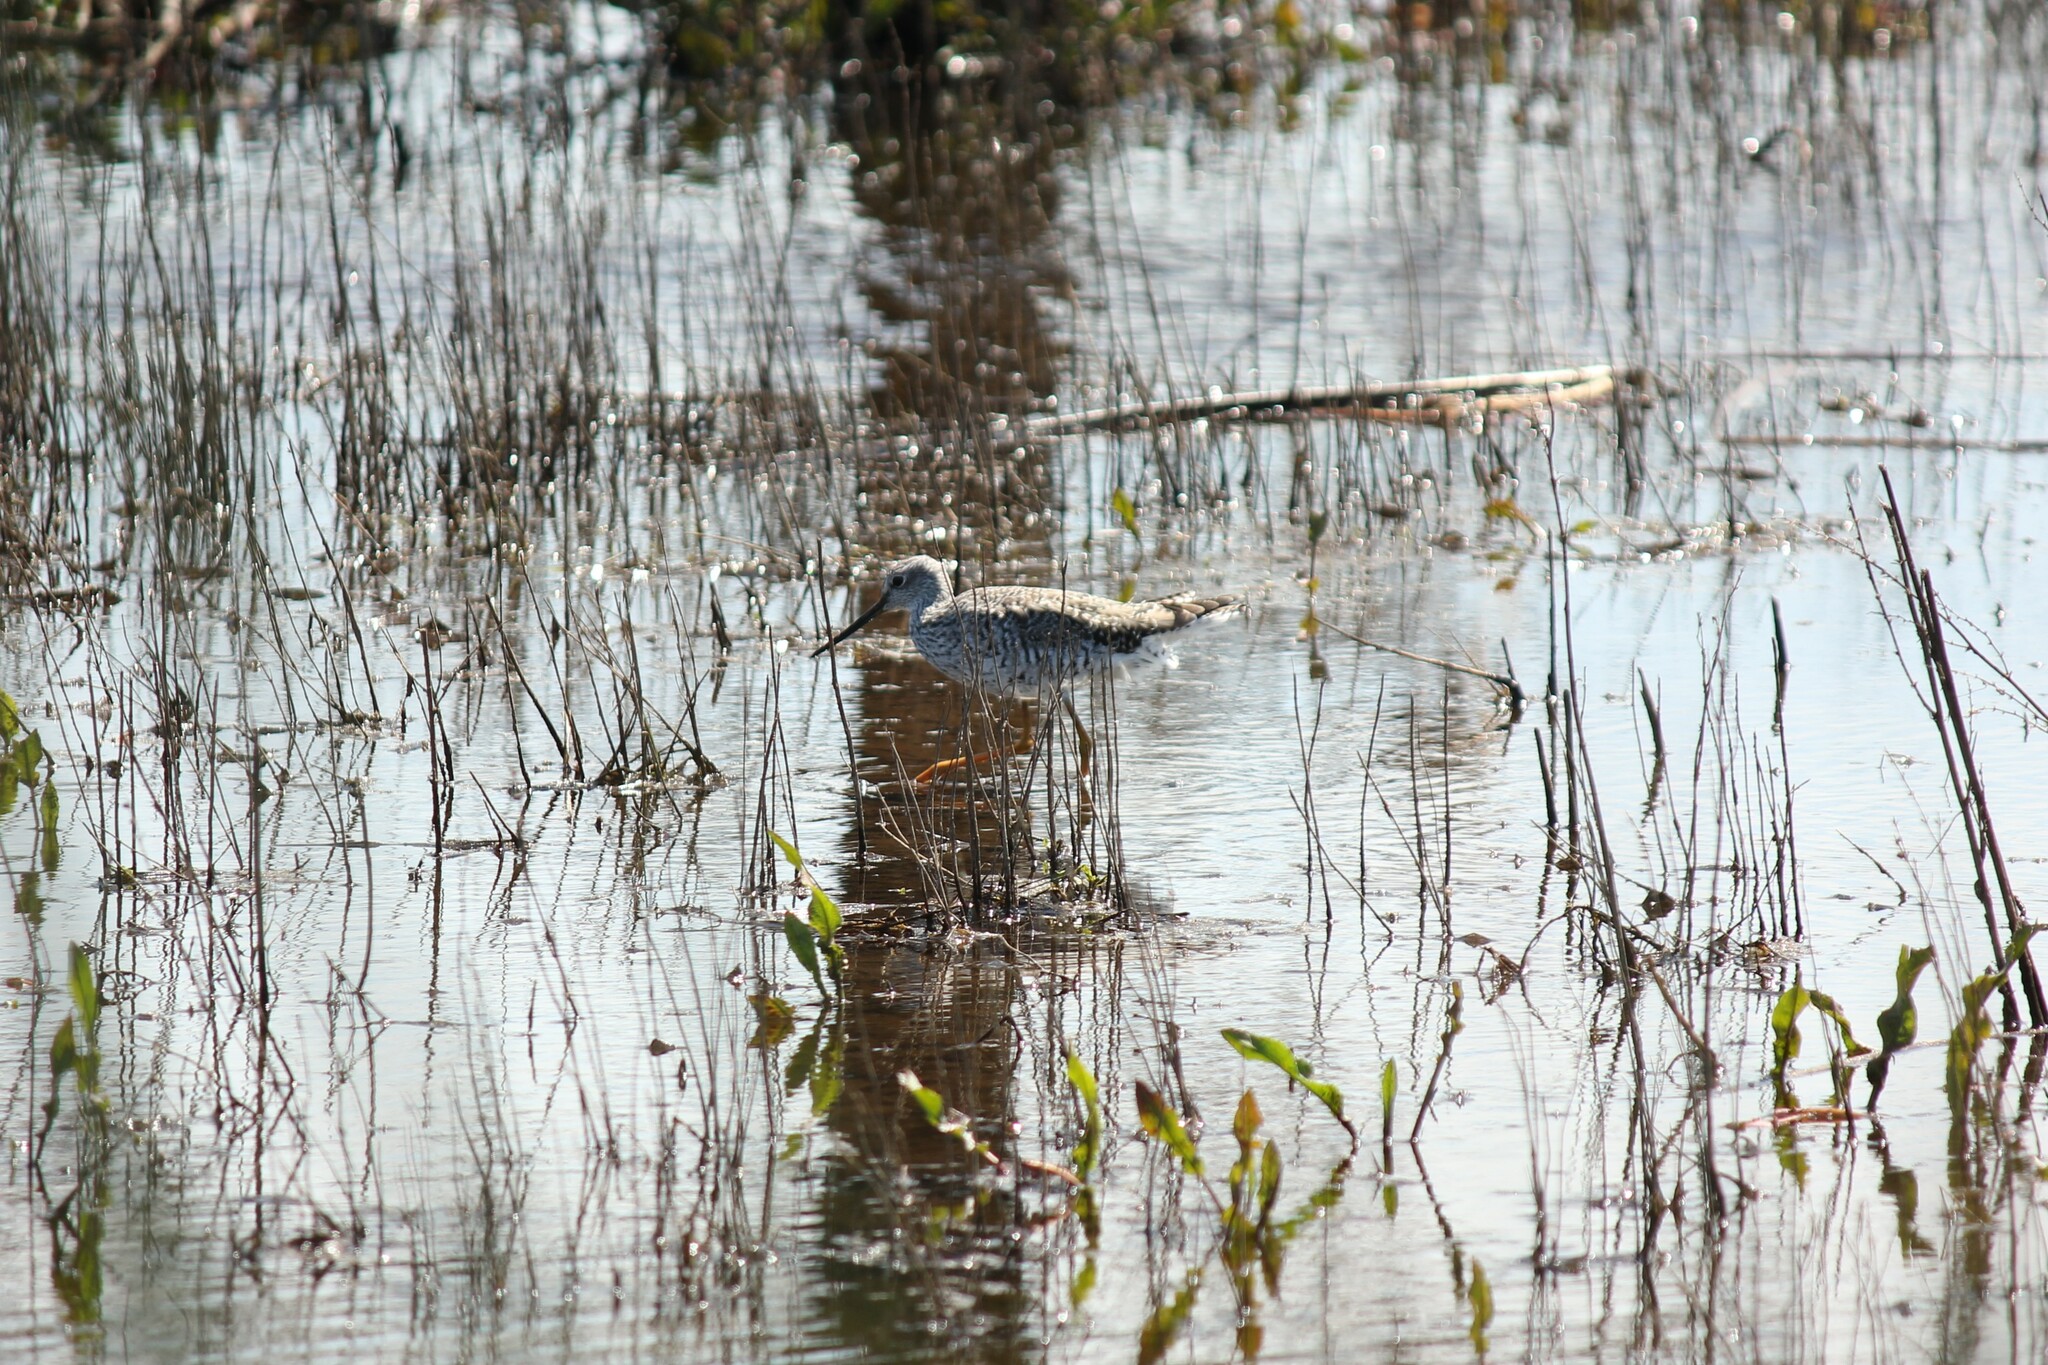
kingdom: Animalia
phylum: Chordata
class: Aves
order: Charadriiformes
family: Scolopacidae
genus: Tringa
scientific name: Tringa melanoleuca
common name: Greater yellowlegs
